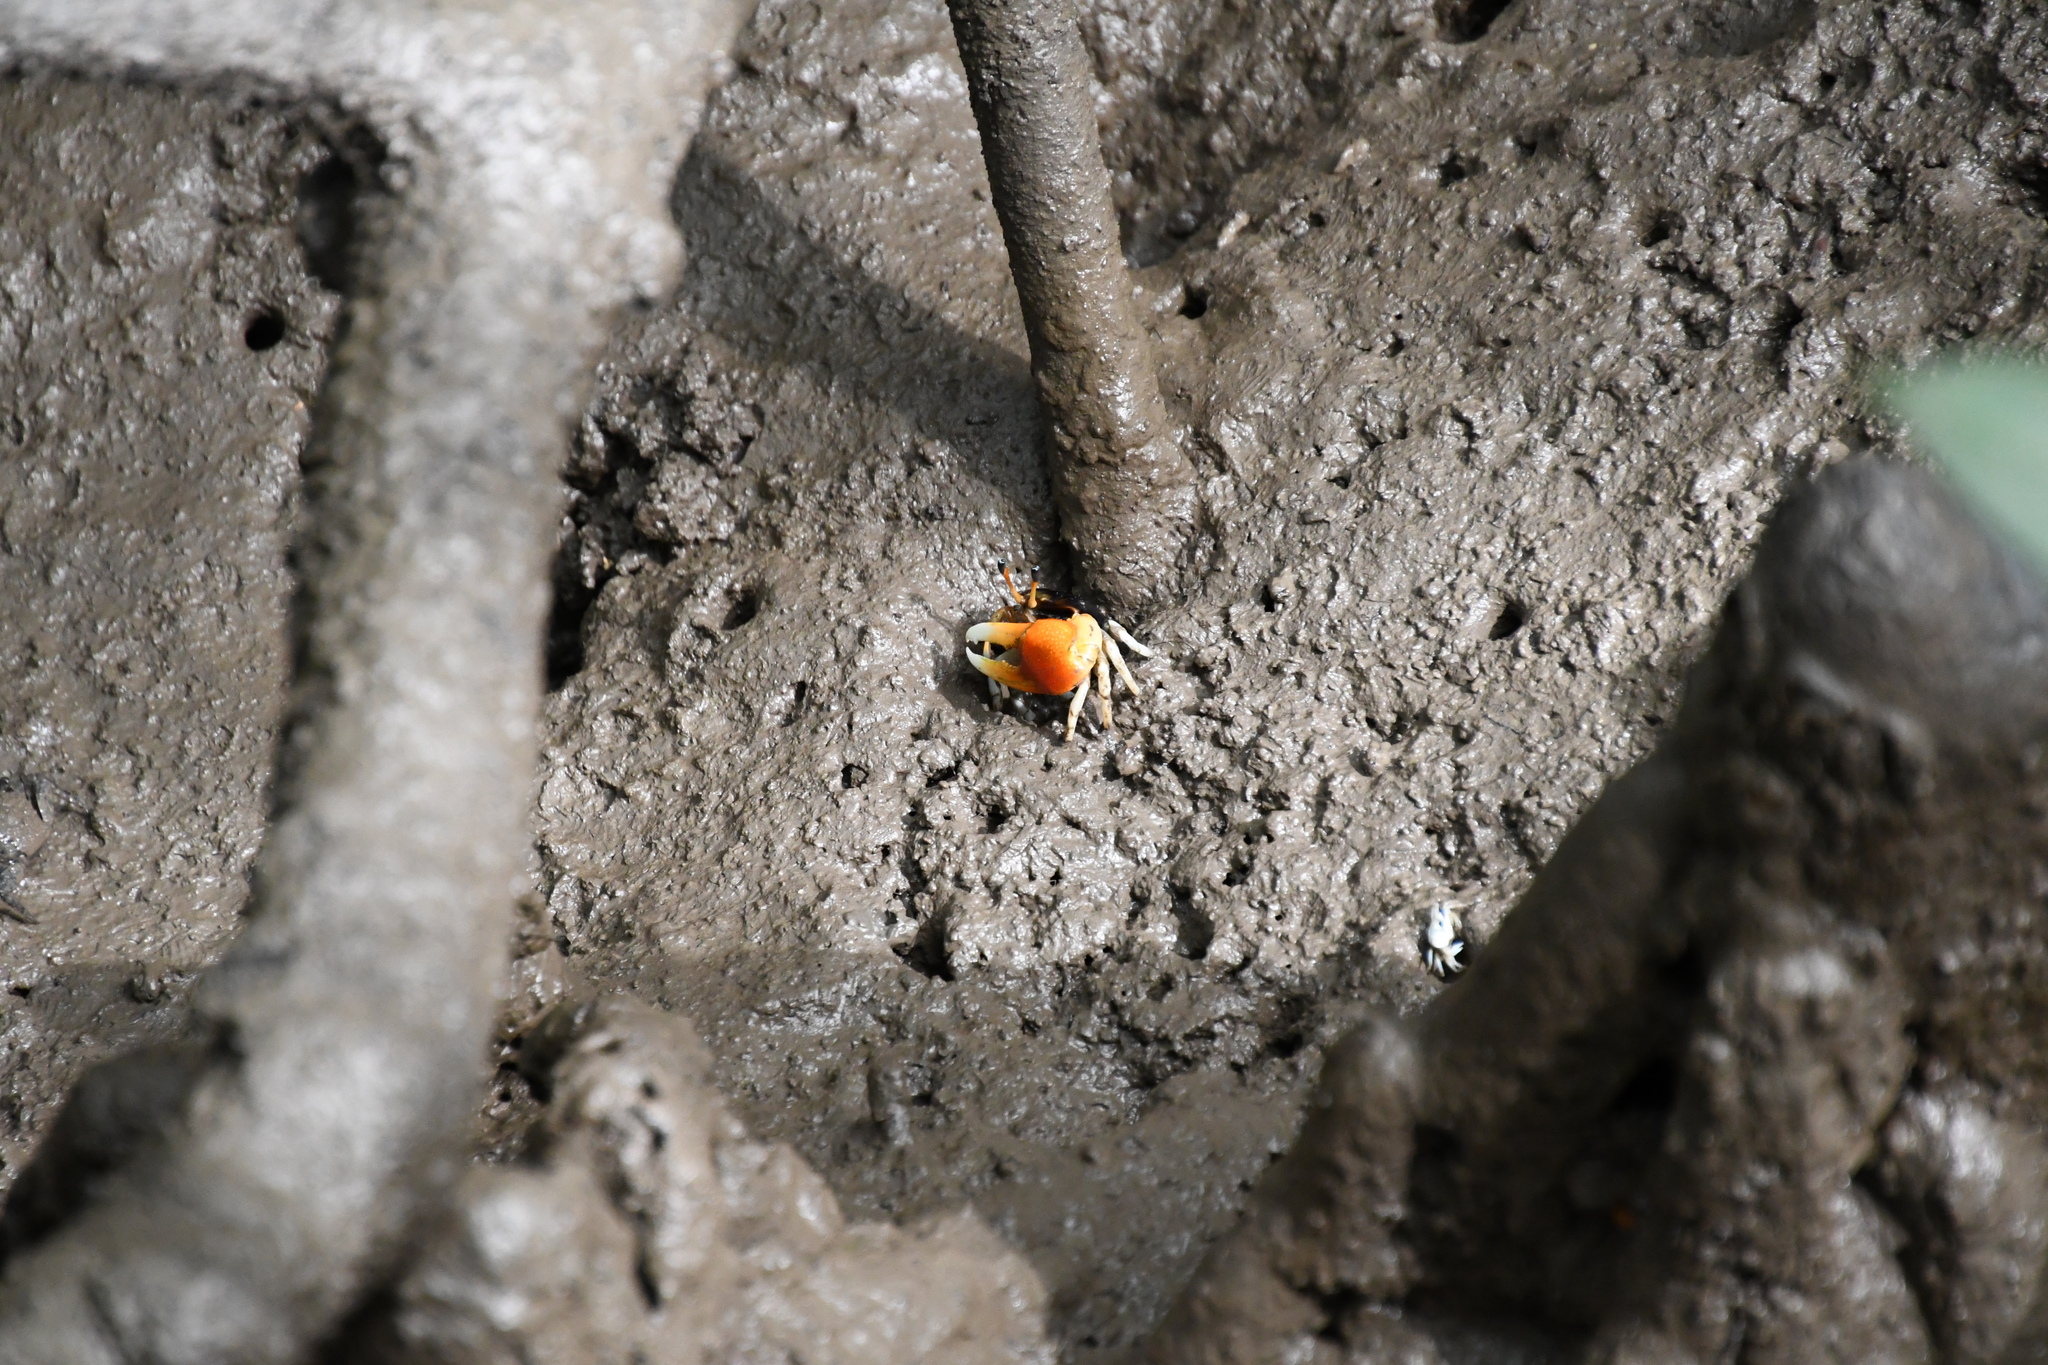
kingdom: Animalia
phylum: Arthropoda
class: Malacostraca
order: Decapoda
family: Ocypodidae
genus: Tubuca
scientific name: Tubuca coarctata
